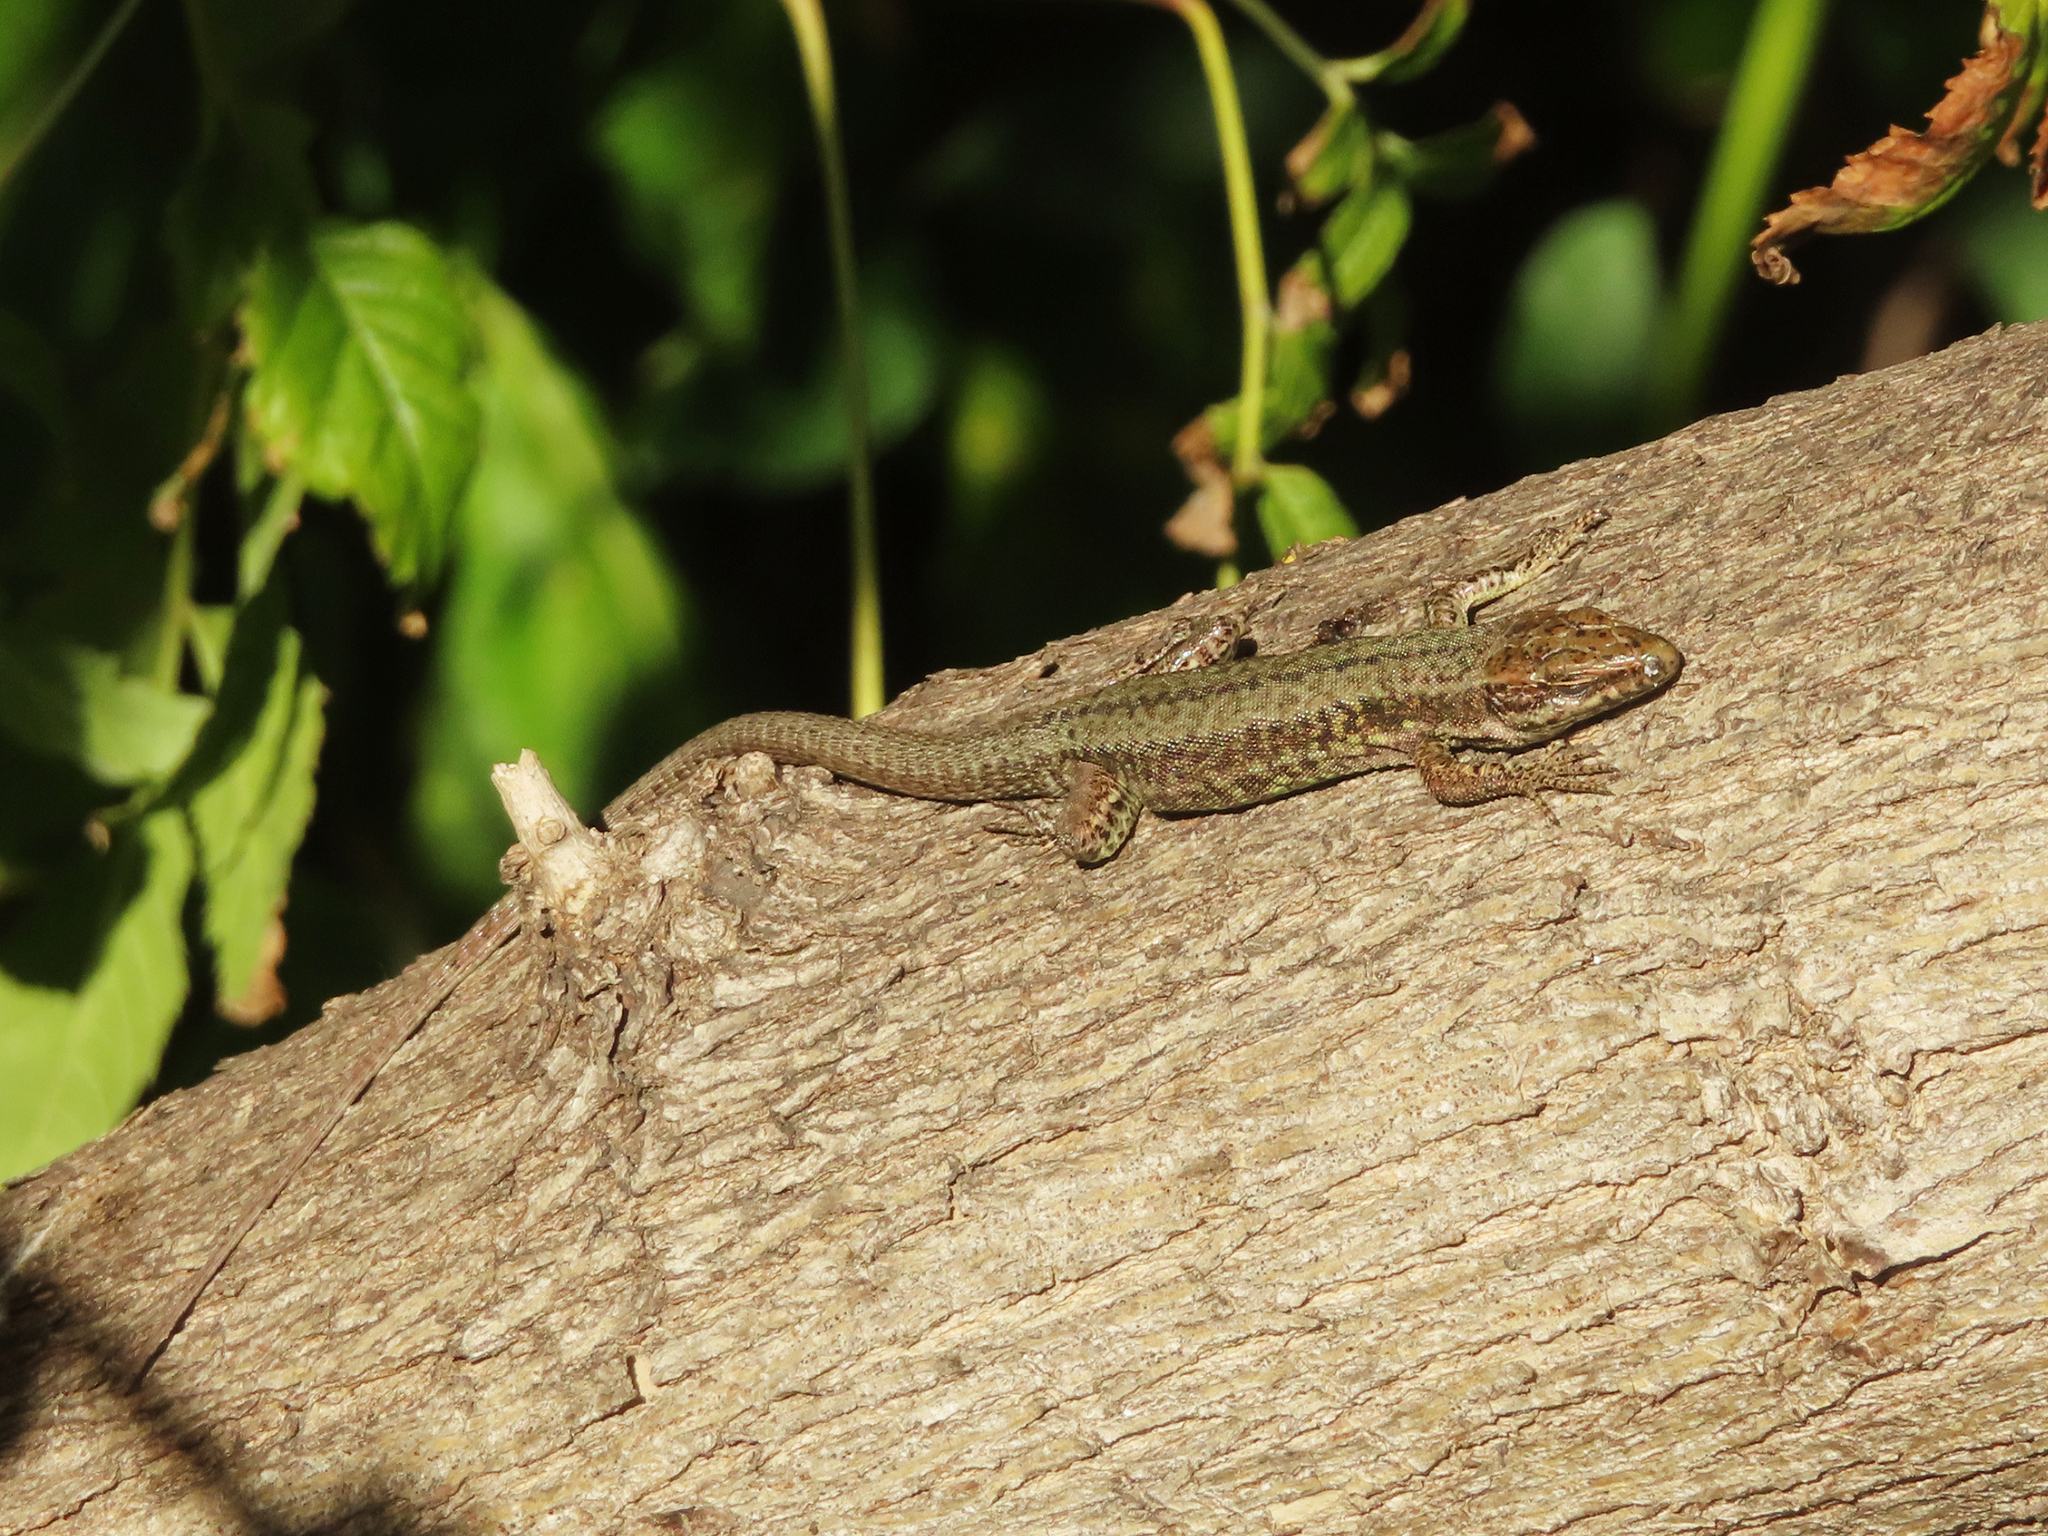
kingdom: Animalia
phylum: Chordata
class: Squamata
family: Lacertidae
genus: Podarcis
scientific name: Podarcis muralis
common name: Common wall lizard
